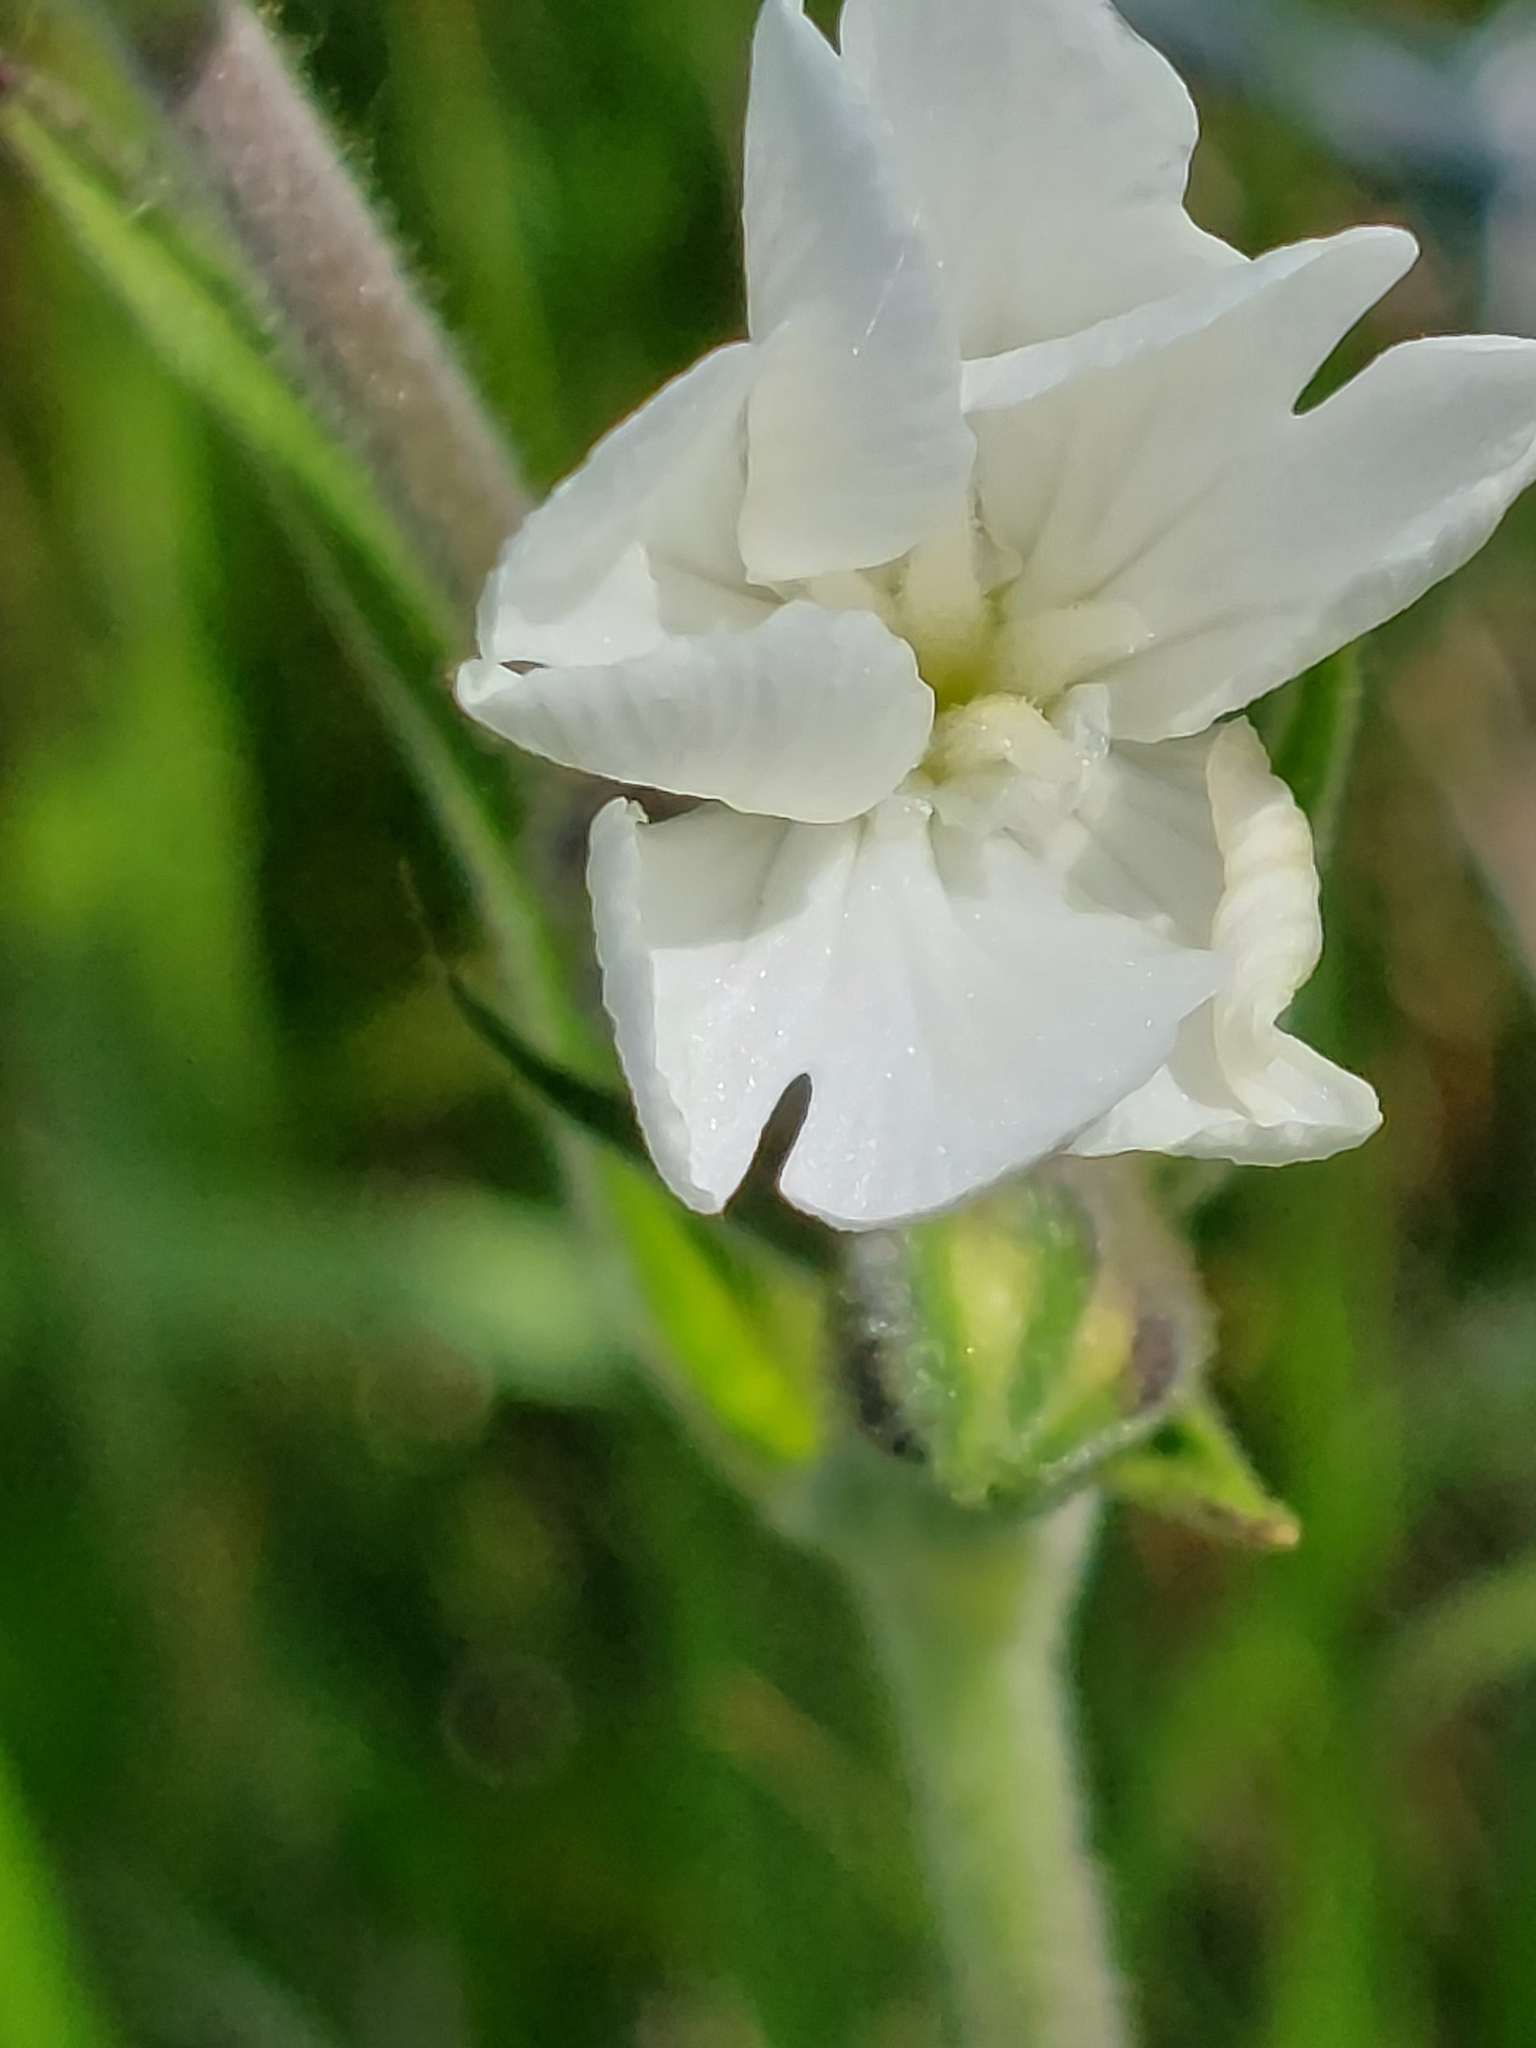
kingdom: Plantae
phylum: Tracheophyta
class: Magnoliopsida
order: Caryophyllales
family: Caryophyllaceae
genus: Silene
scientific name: Silene latifolia
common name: White campion
